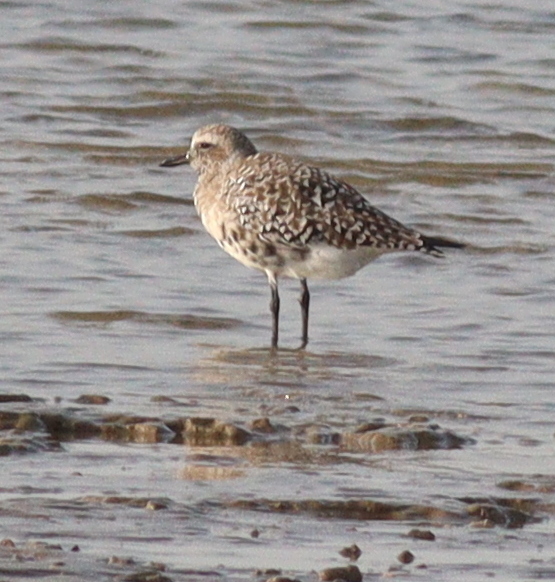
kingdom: Animalia
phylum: Chordata
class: Aves
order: Charadriiformes
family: Charadriidae
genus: Pluvialis
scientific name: Pluvialis squatarola
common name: Grey plover
